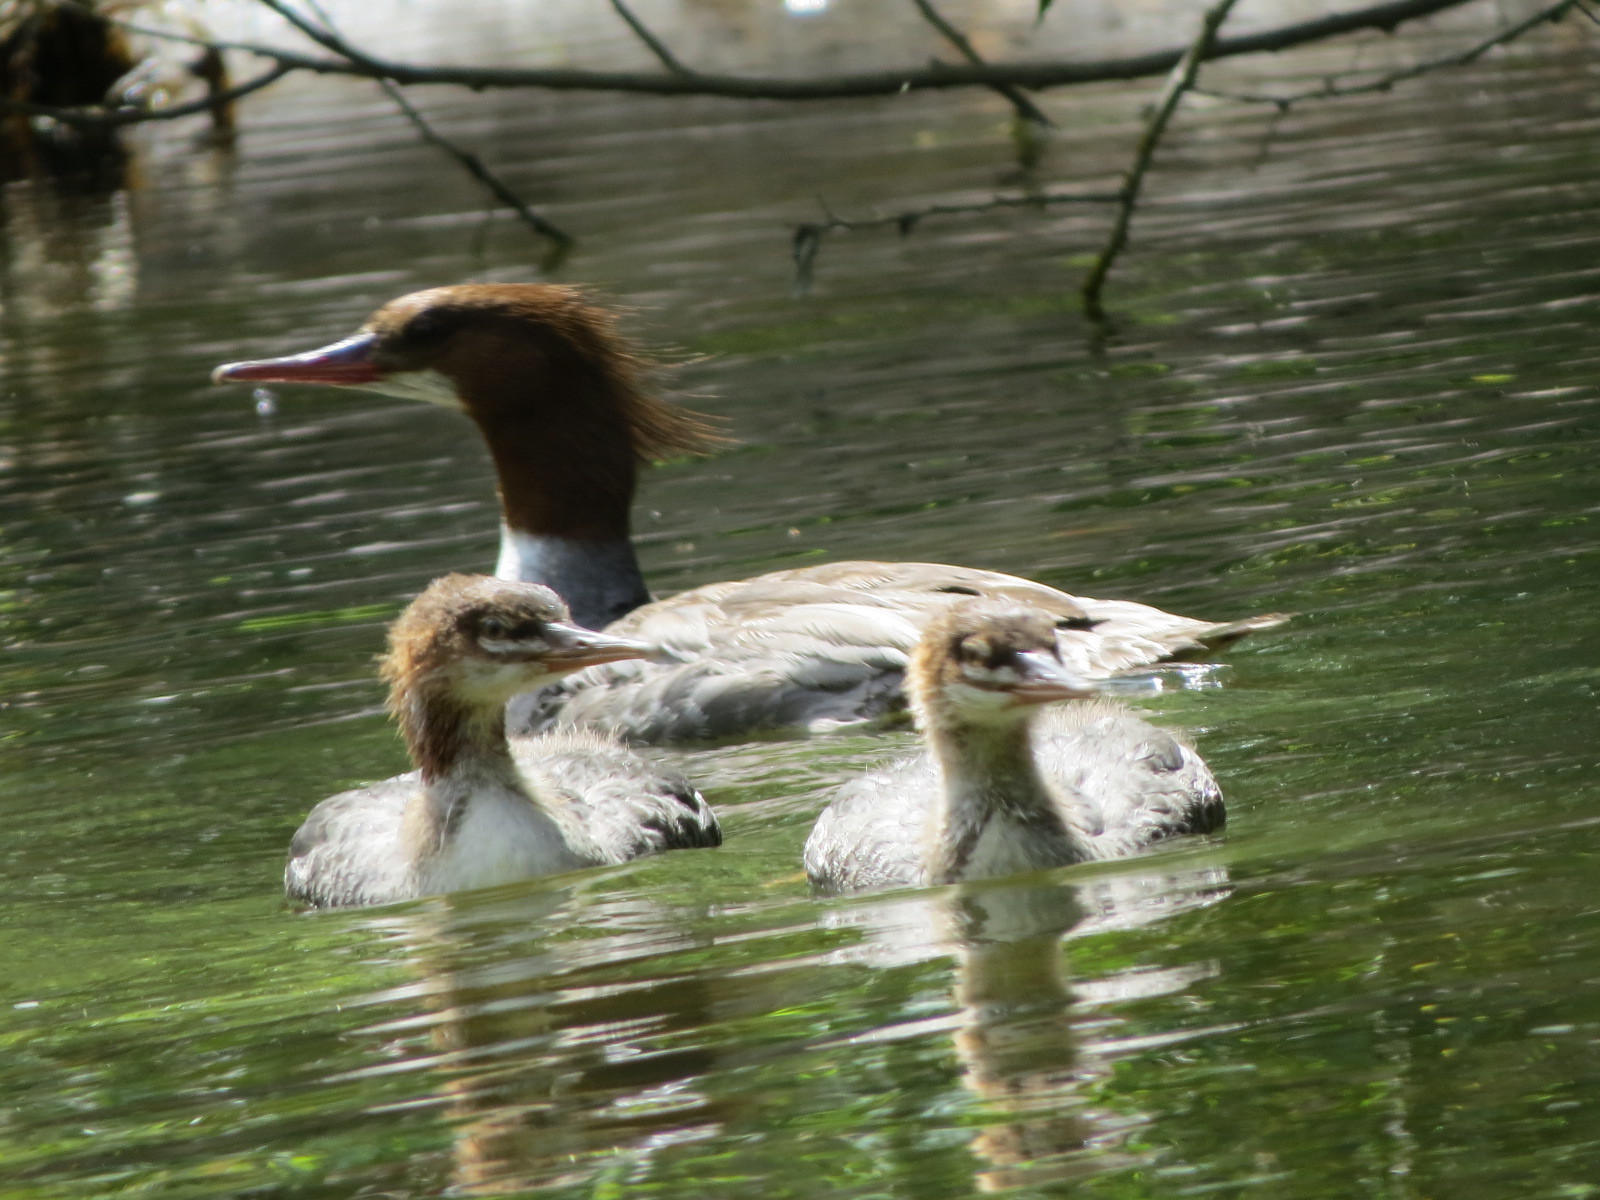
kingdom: Animalia
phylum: Chordata
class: Aves
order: Anseriformes
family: Anatidae
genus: Mergus
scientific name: Mergus merganser
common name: Common merganser
